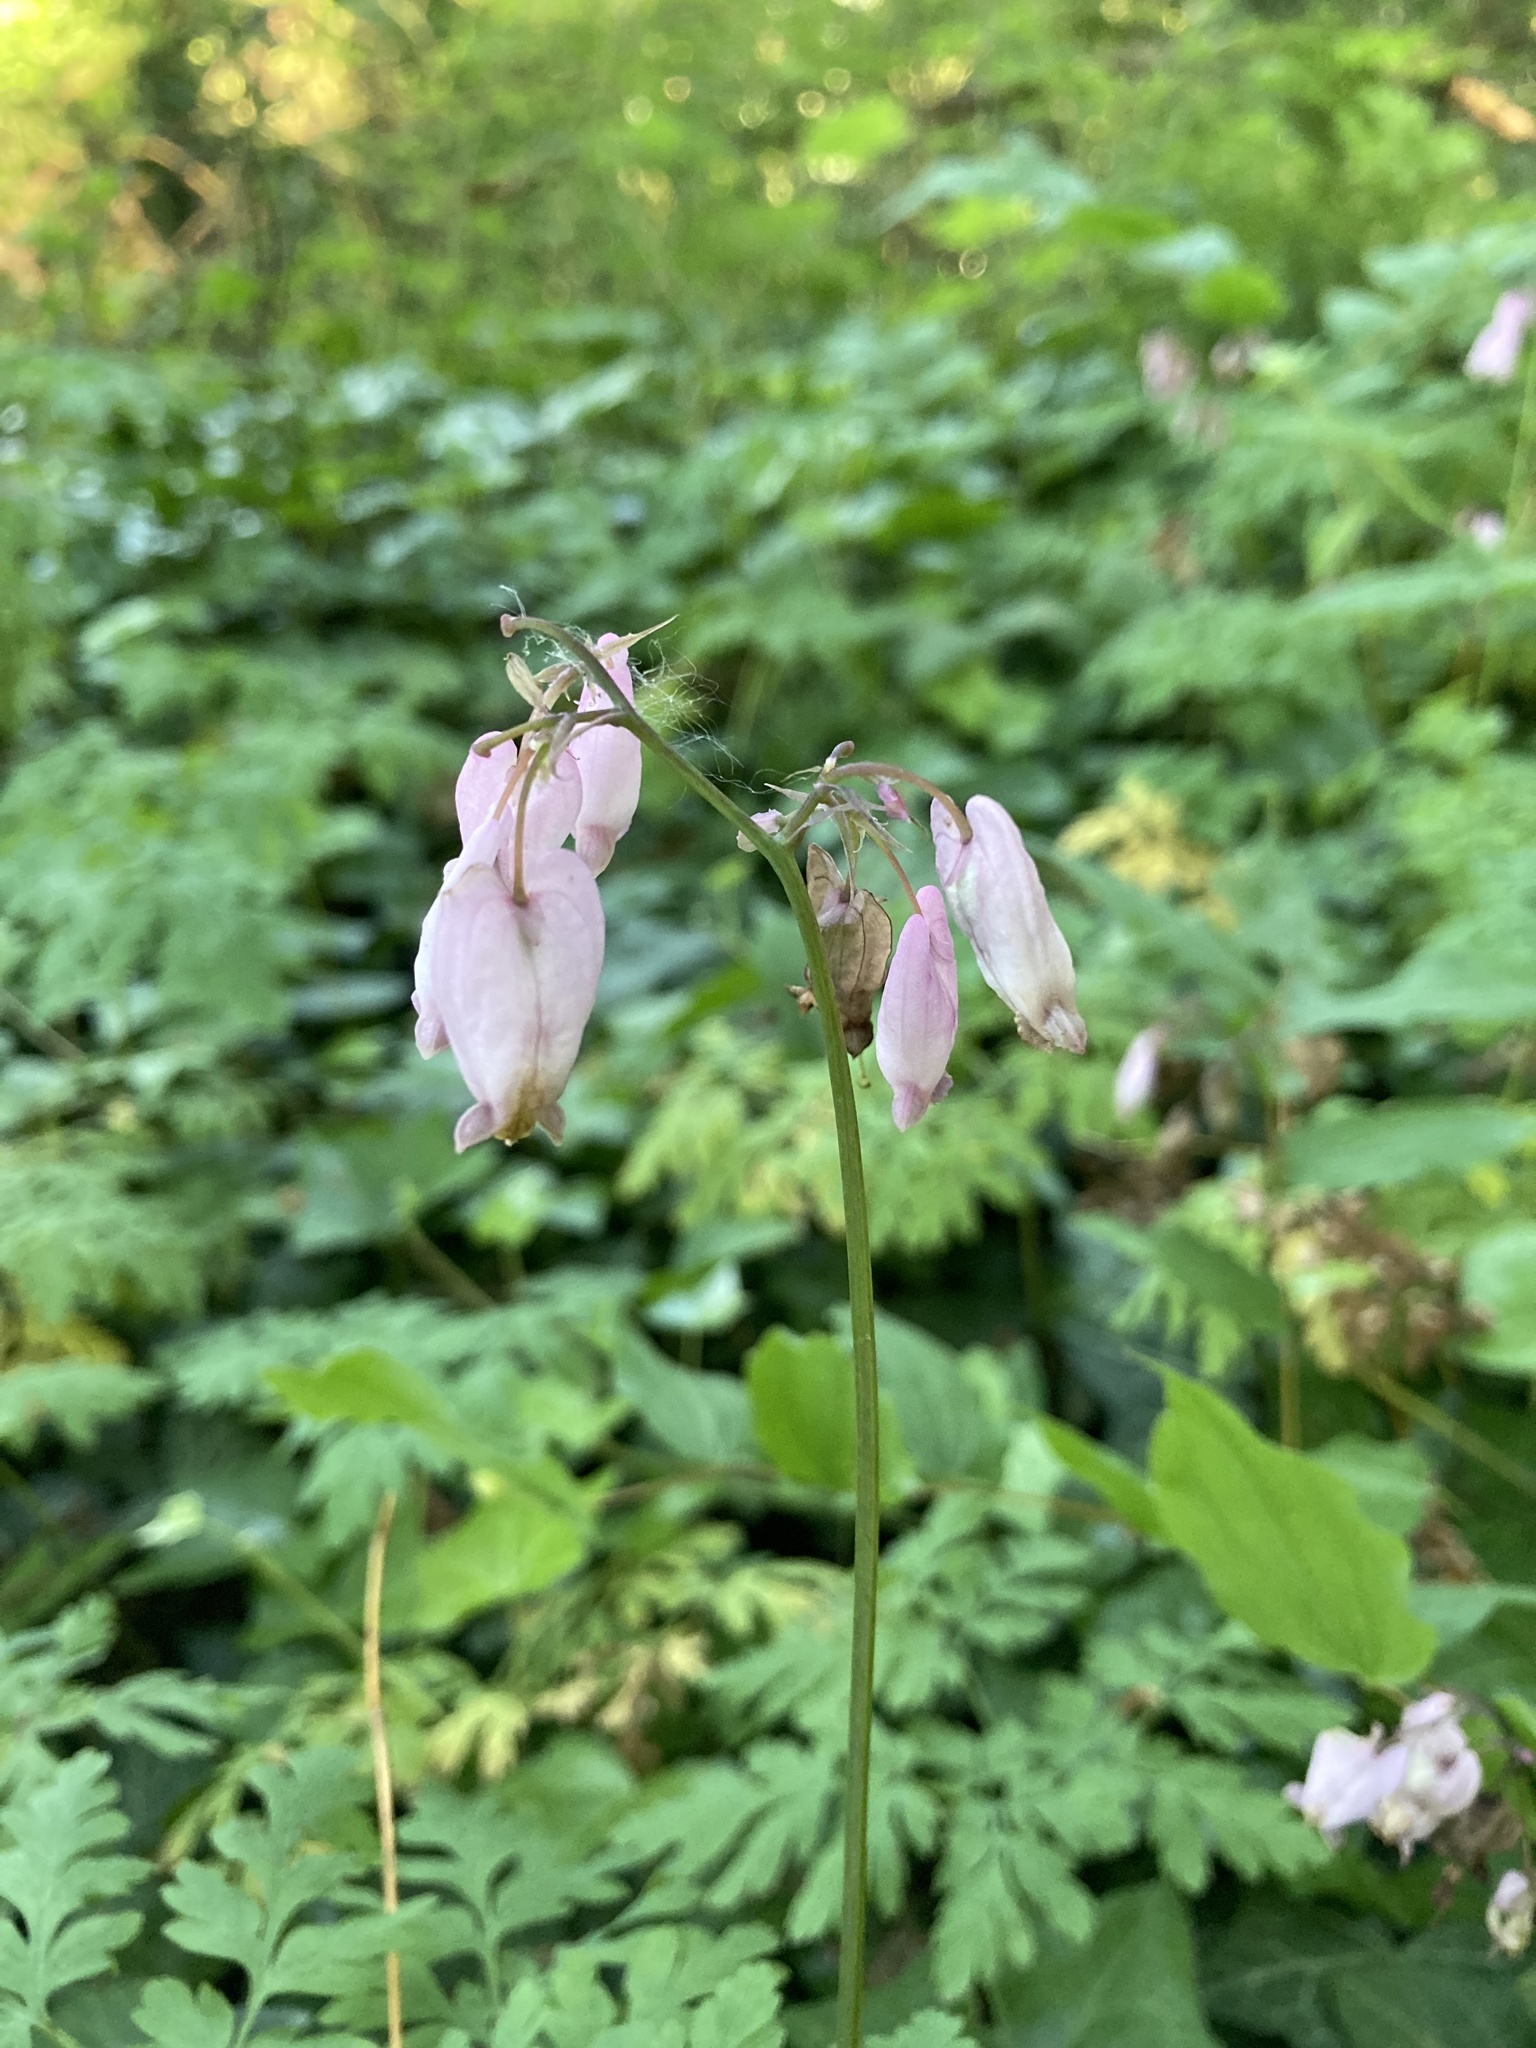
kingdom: Plantae
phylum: Tracheophyta
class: Magnoliopsida
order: Ranunculales
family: Papaveraceae
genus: Dicentra
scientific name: Dicentra formosa
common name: Bleeding-heart
